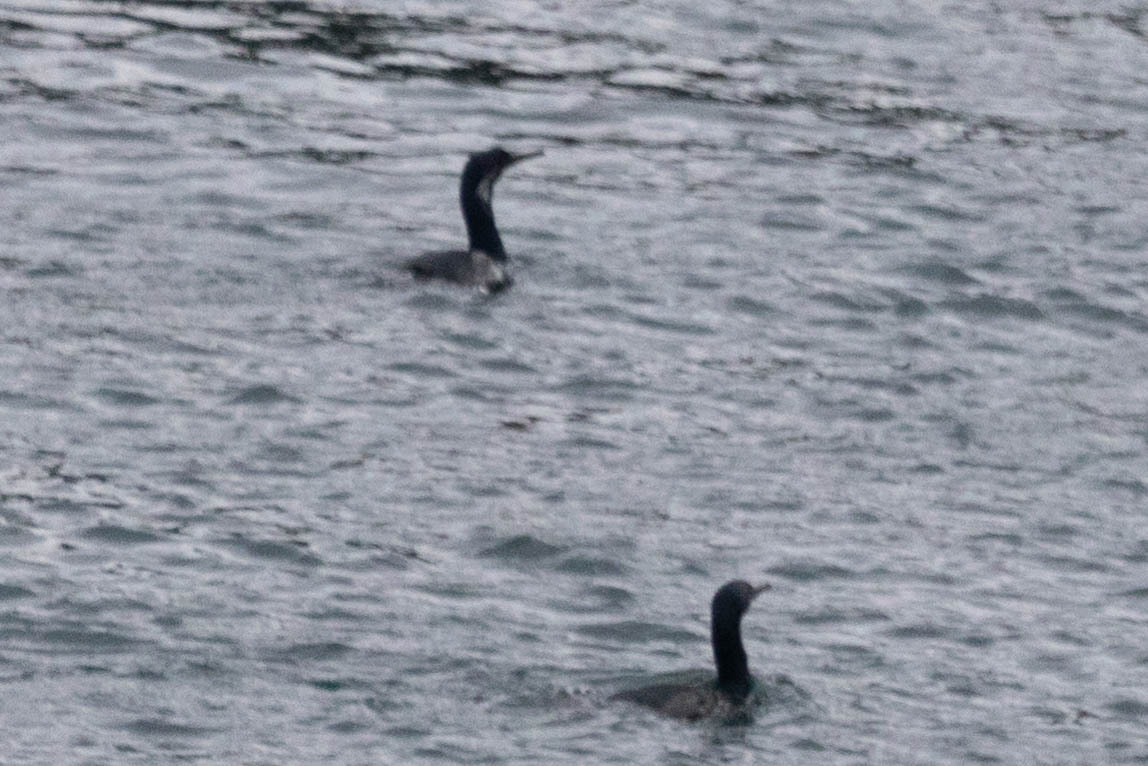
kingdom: Animalia
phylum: Chordata
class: Aves
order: Suliformes
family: Phalacrocoracidae
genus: Urile
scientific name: Urile penicillatus
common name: Brandt's cormorant
